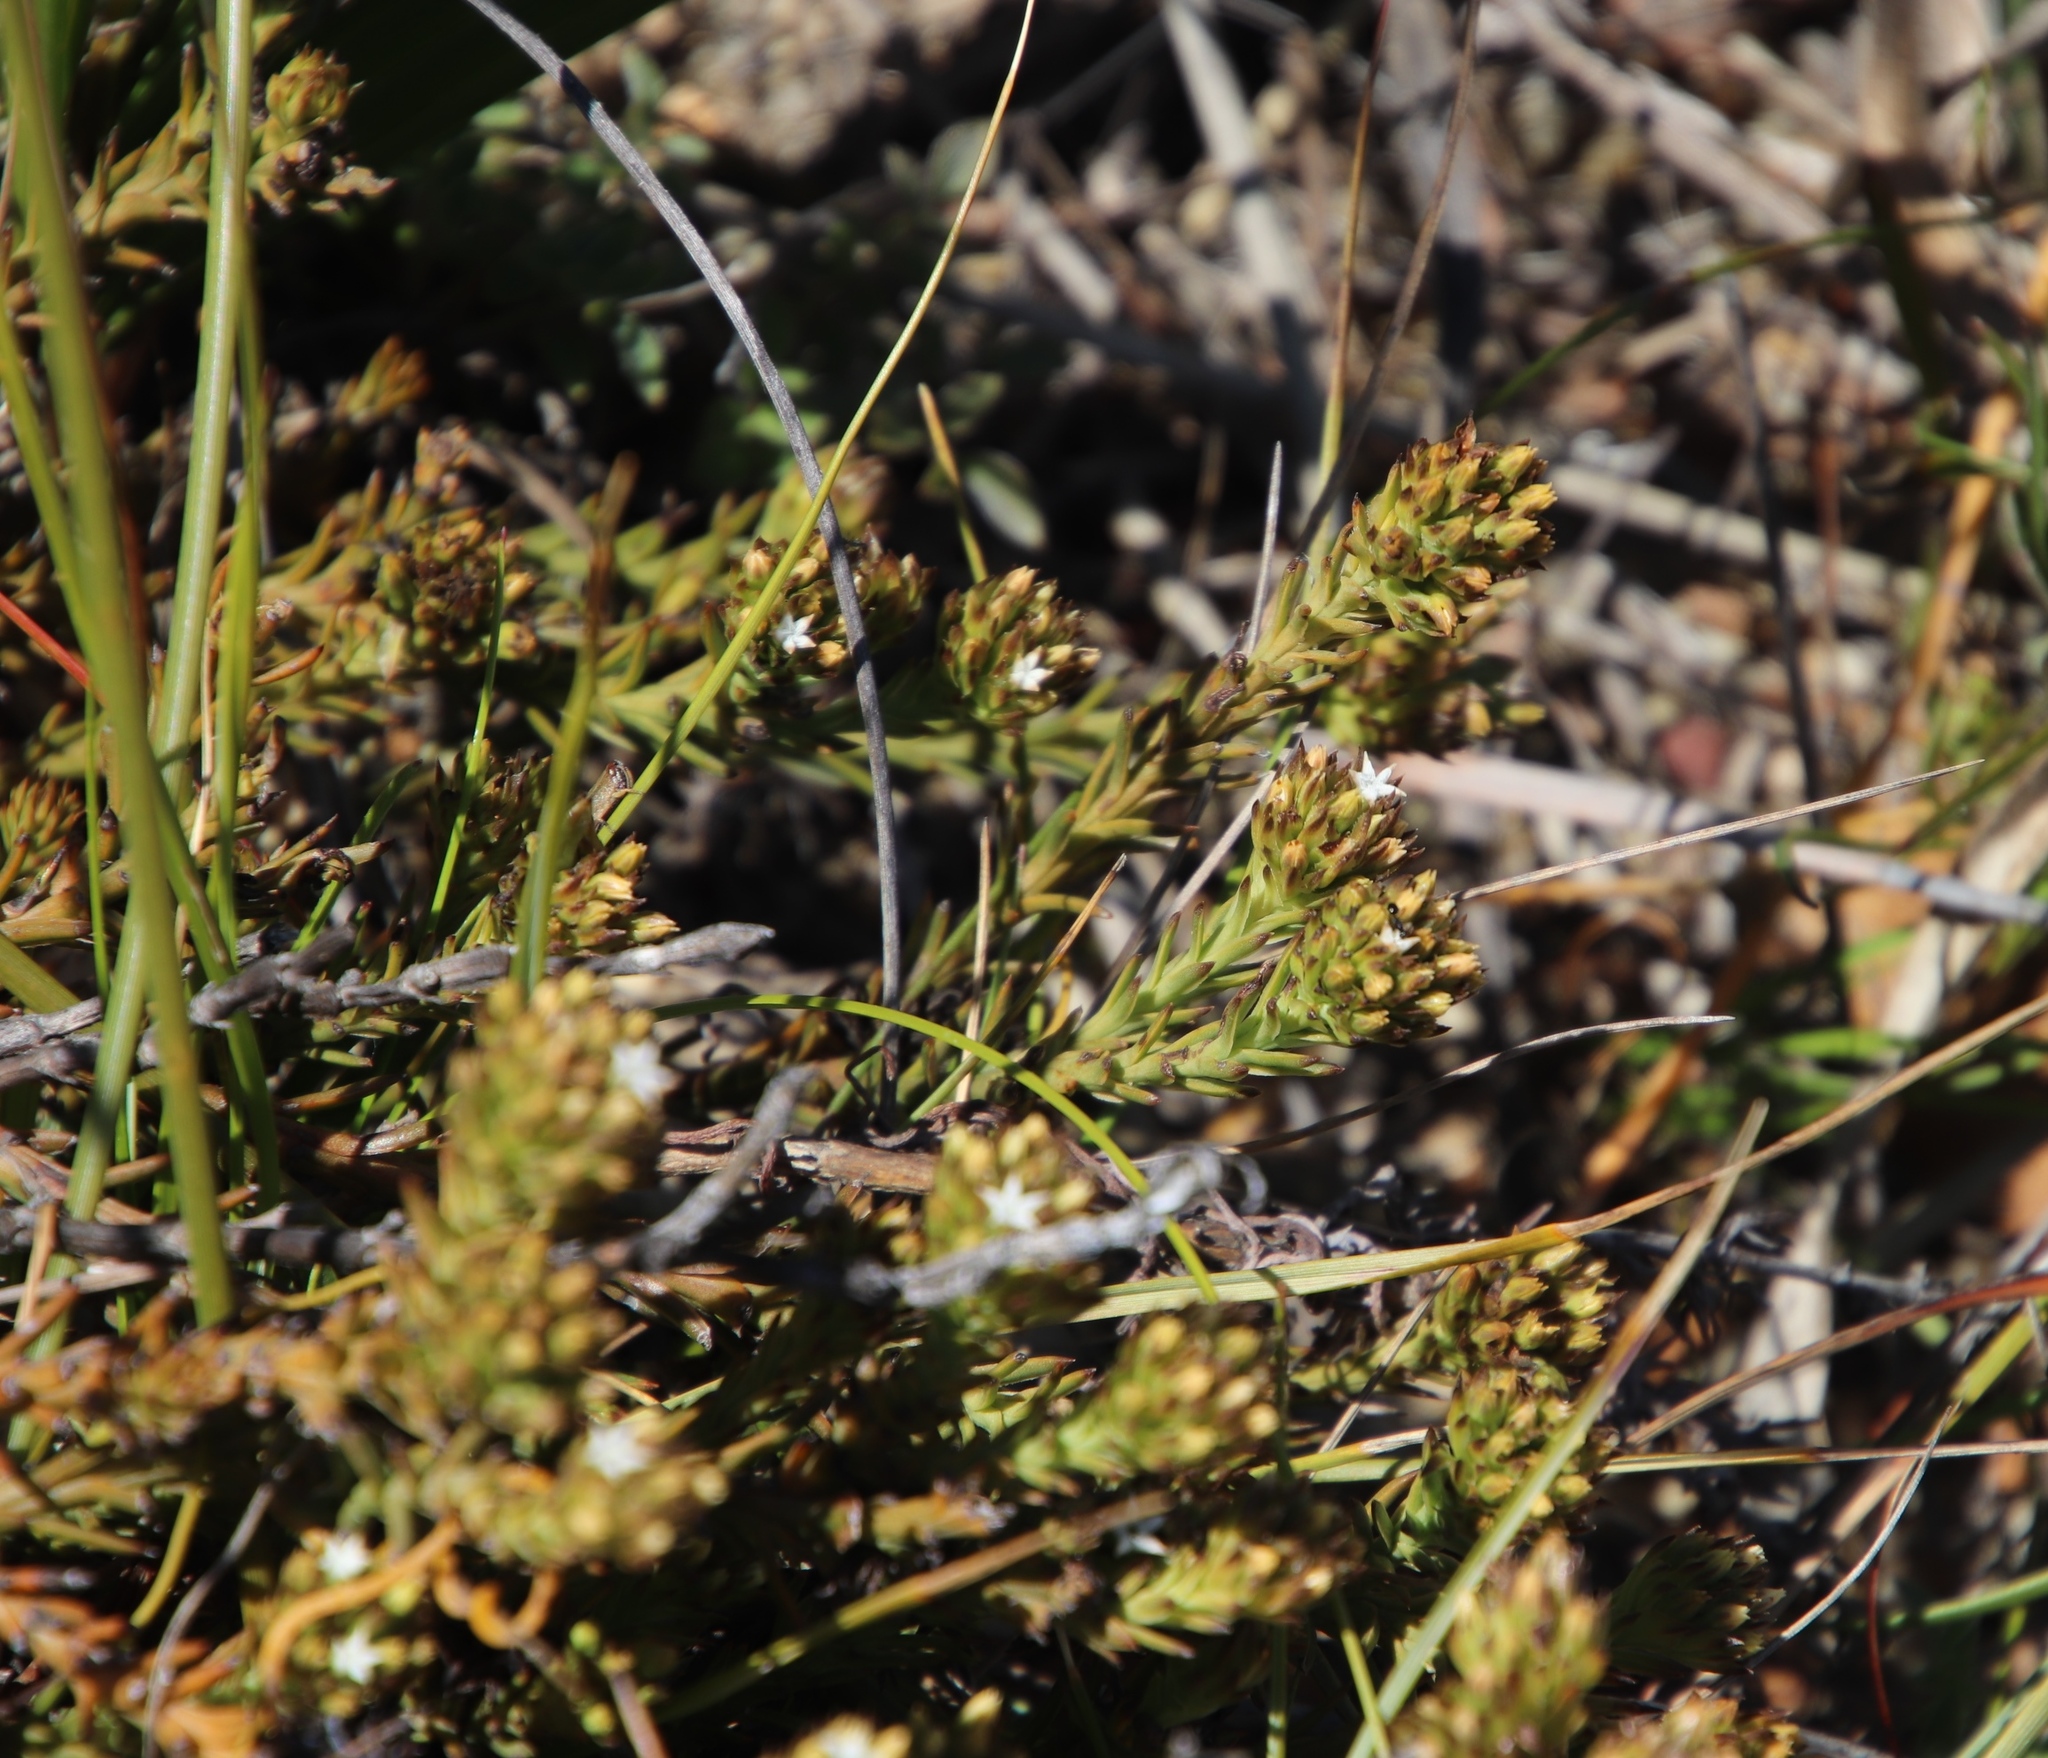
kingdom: Plantae
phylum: Tracheophyta
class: Magnoliopsida
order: Santalales
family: Thesiaceae
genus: Thesium
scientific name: Thesium capitatum
